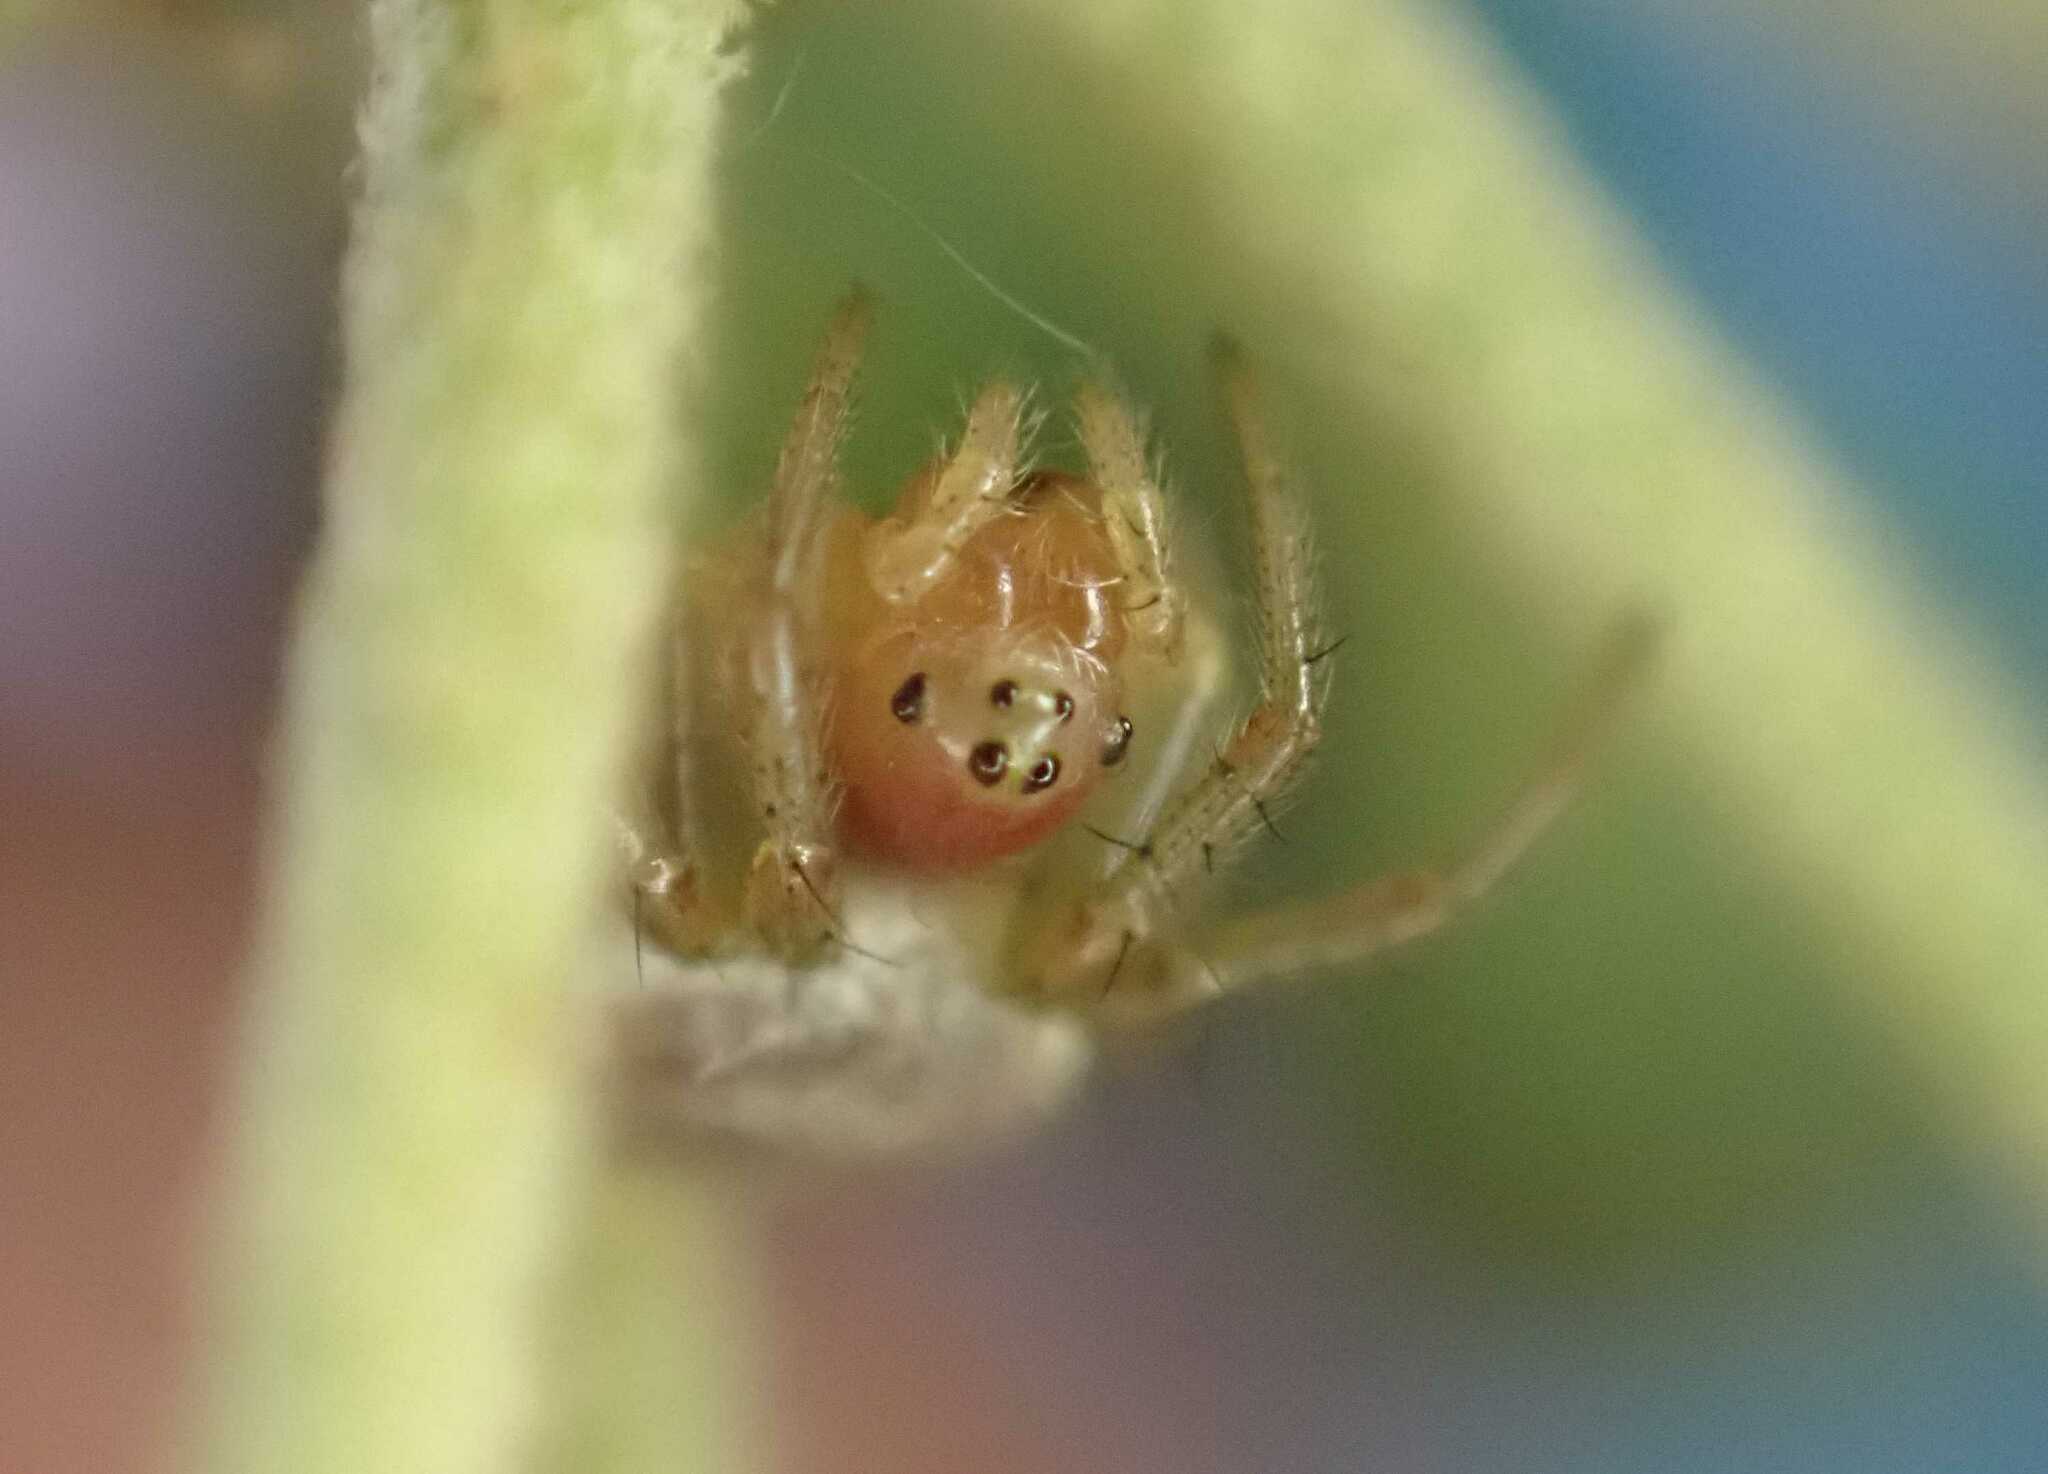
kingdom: Animalia
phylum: Arthropoda
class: Arachnida
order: Araneae
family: Araneidae
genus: Araniella
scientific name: Araniella
